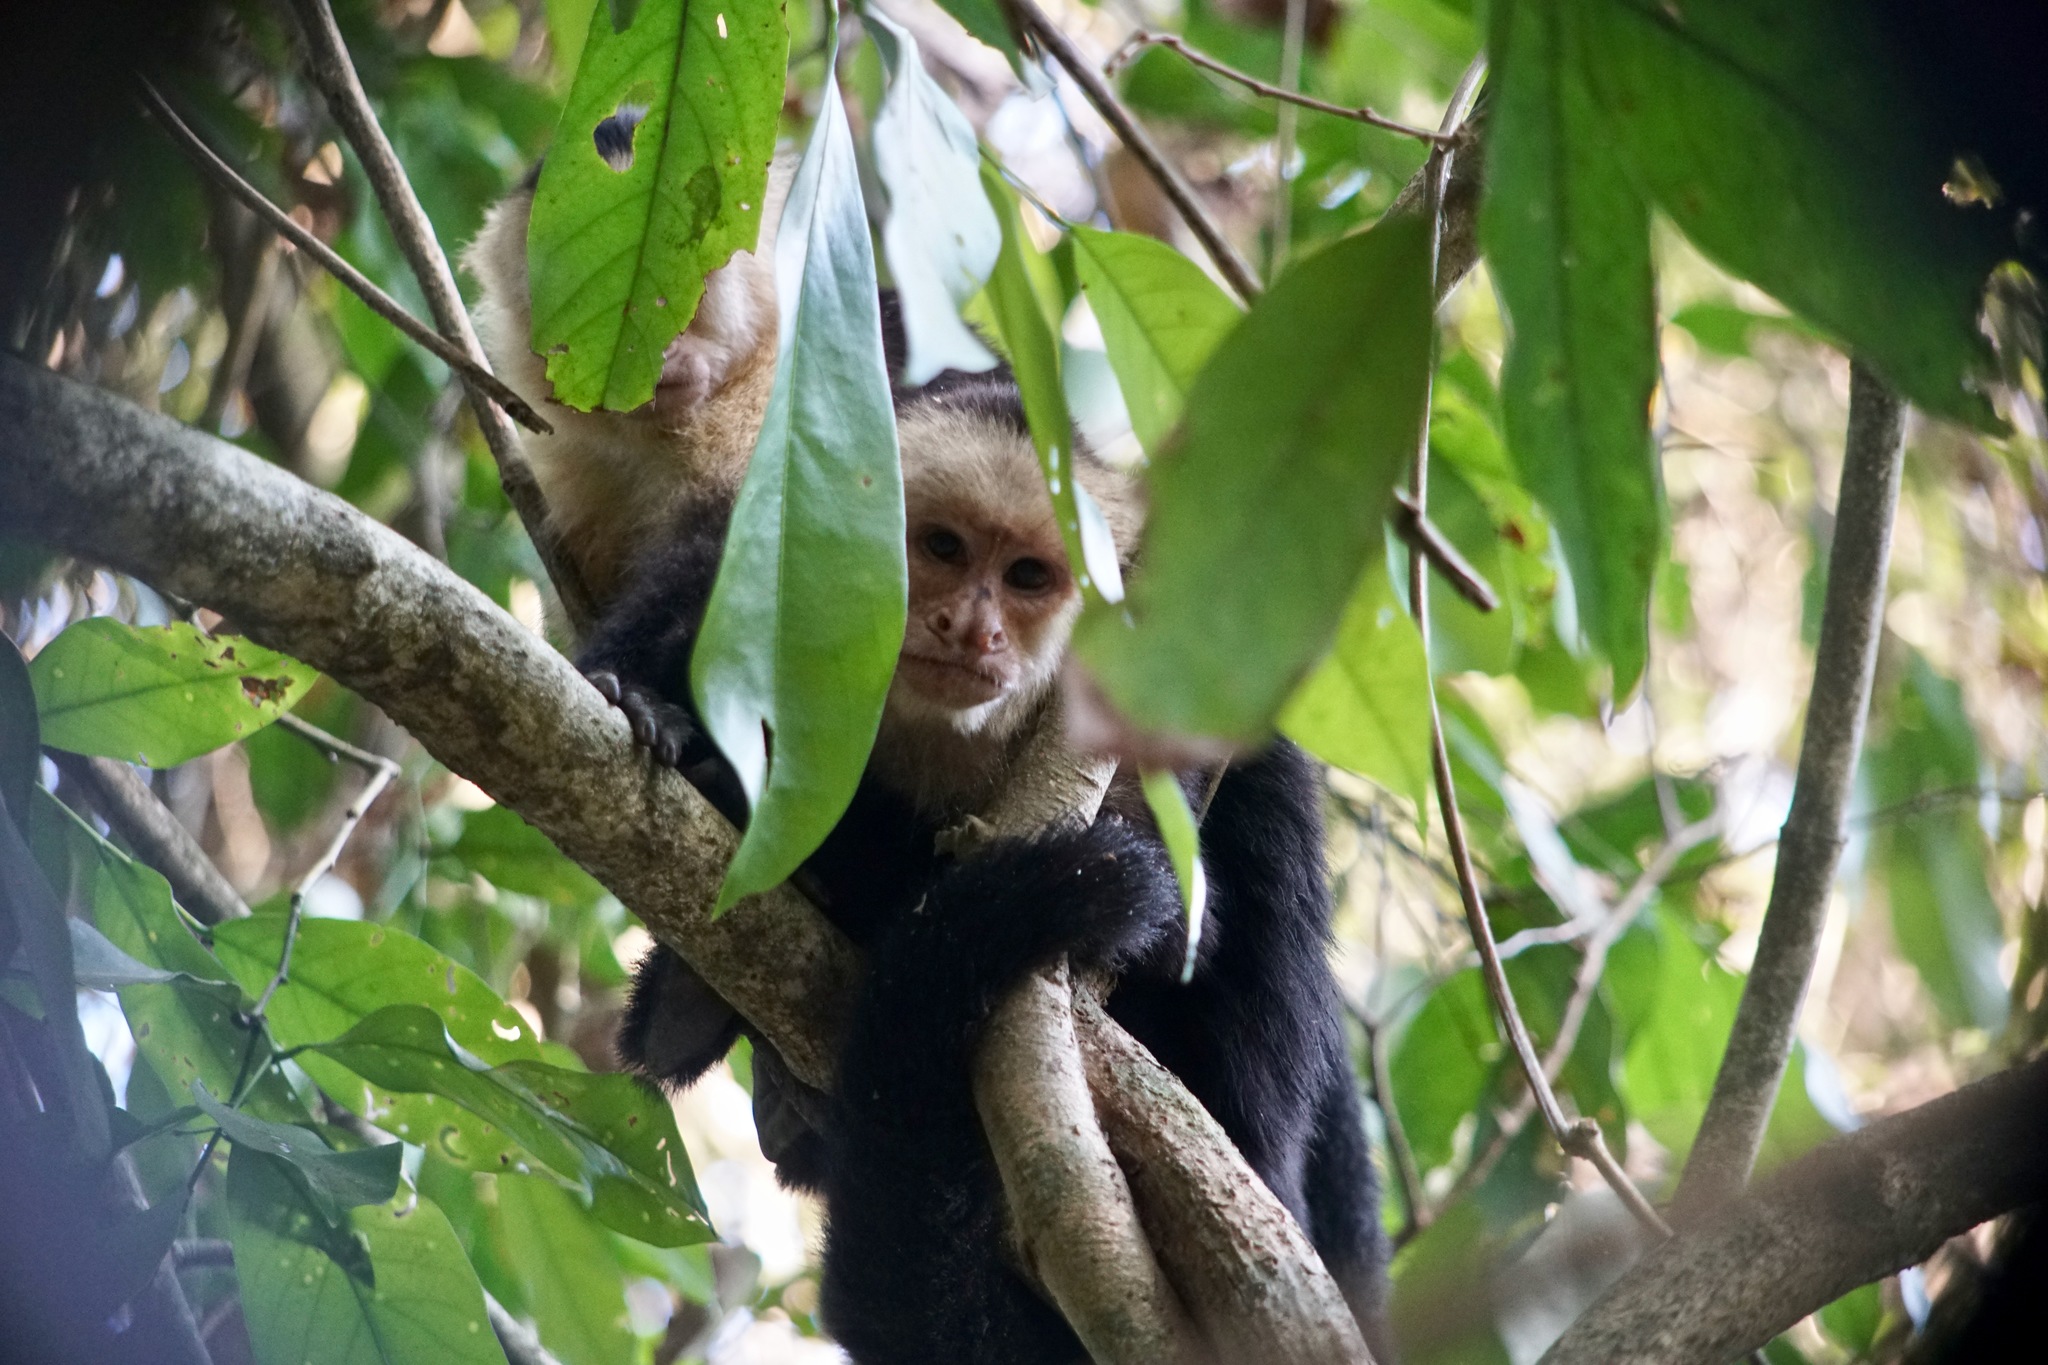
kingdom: Animalia
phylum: Chordata
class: Mammalia
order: Primates
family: Cebidae
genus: Cebus
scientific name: Cebus imitator
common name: Panamanian white-faced capuchin
